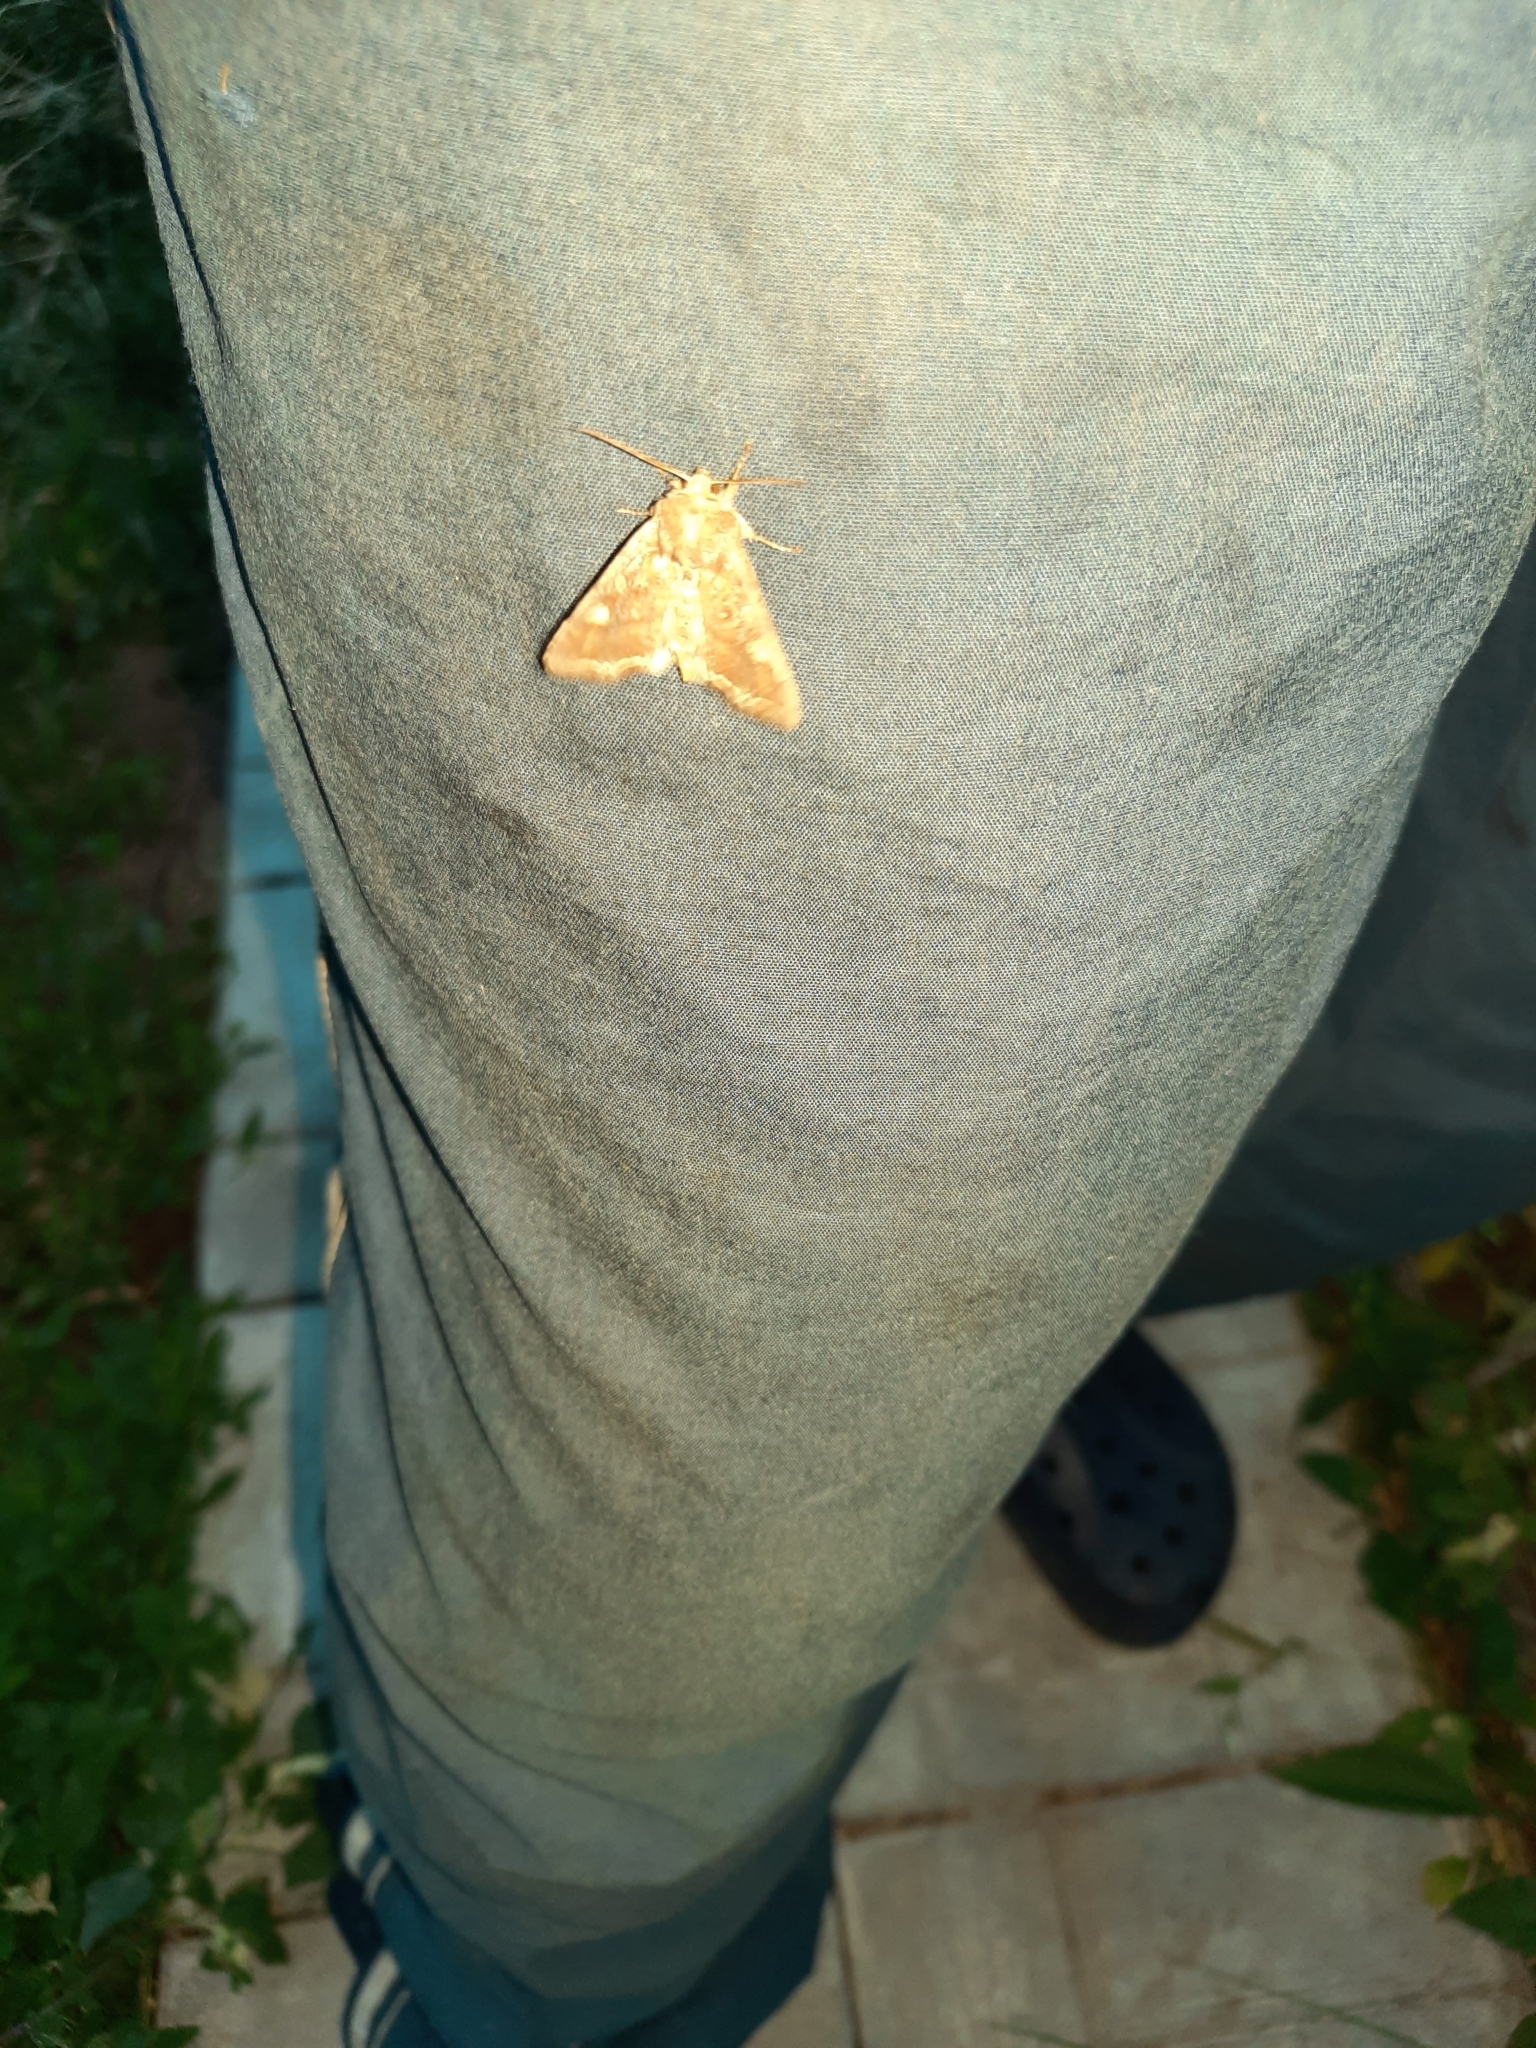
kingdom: Animalia
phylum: Arthropoda
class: Insecta
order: Lepidoptera
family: Noctuidae
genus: Lacanobia
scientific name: Lacanobia oleracea
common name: Bright-line brown-eye
